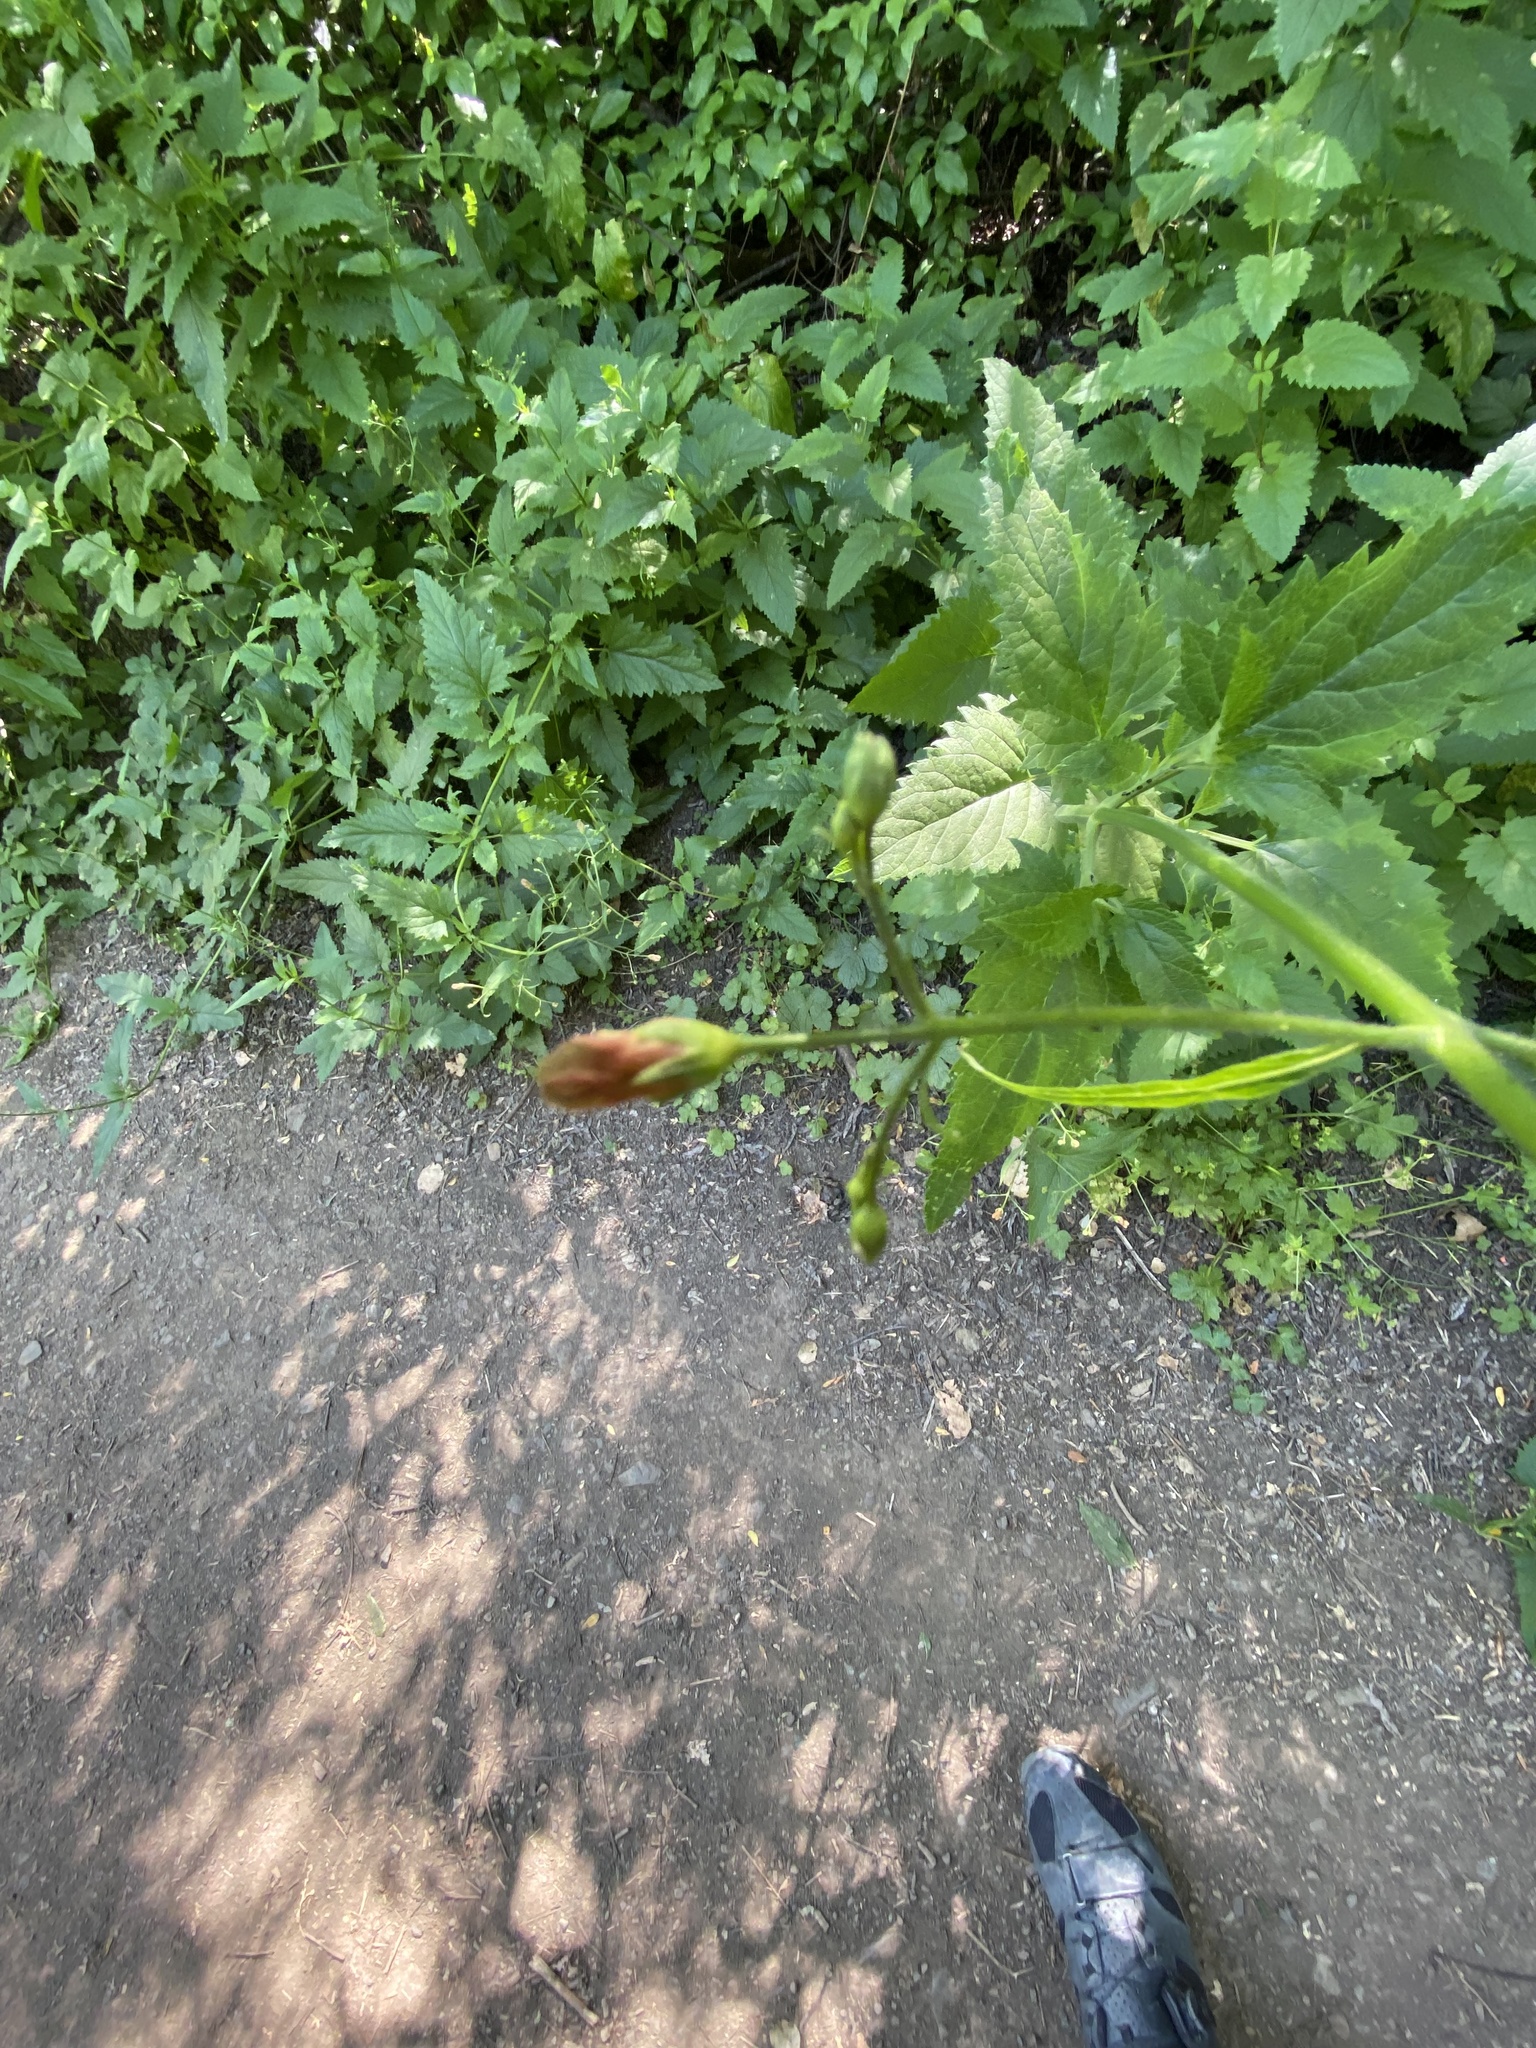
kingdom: Plantae
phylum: Tracheophyta
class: Magnoliopsida
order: Lamiales
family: Scrophulariaceae
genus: Scrophularia
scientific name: Scrophularia californica
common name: California figwort
